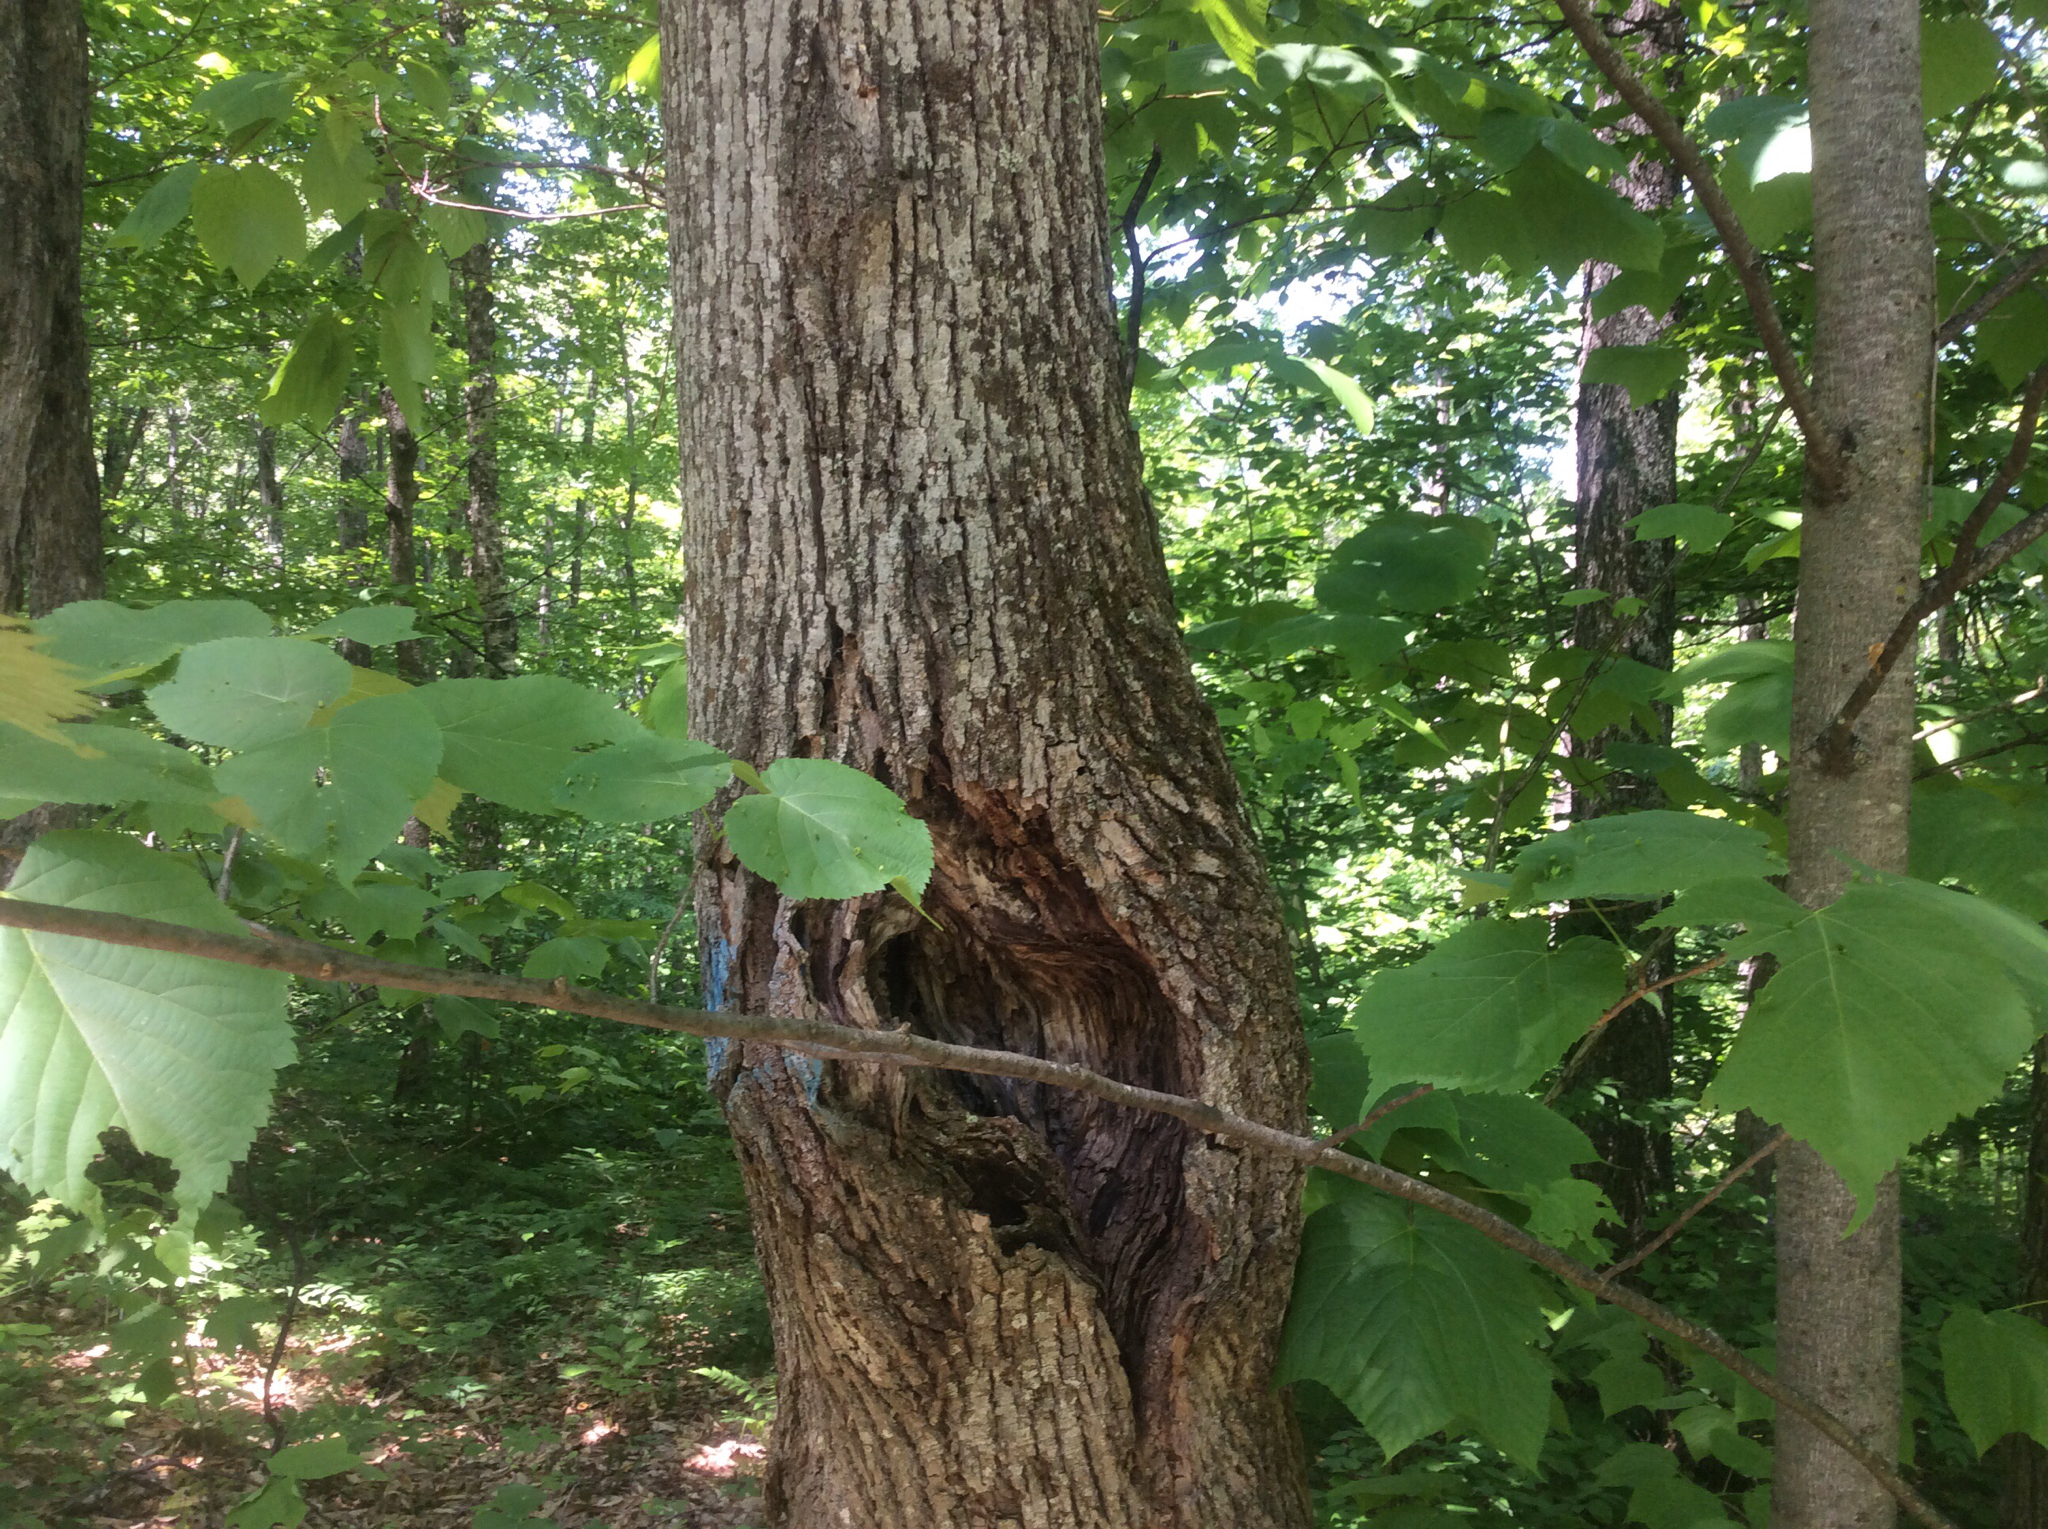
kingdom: Plantae
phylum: Tracheophyta
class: Magnoliopsida
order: Malvales
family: Malvaceae
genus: Tilia
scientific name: Tilia americana
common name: Basswood
